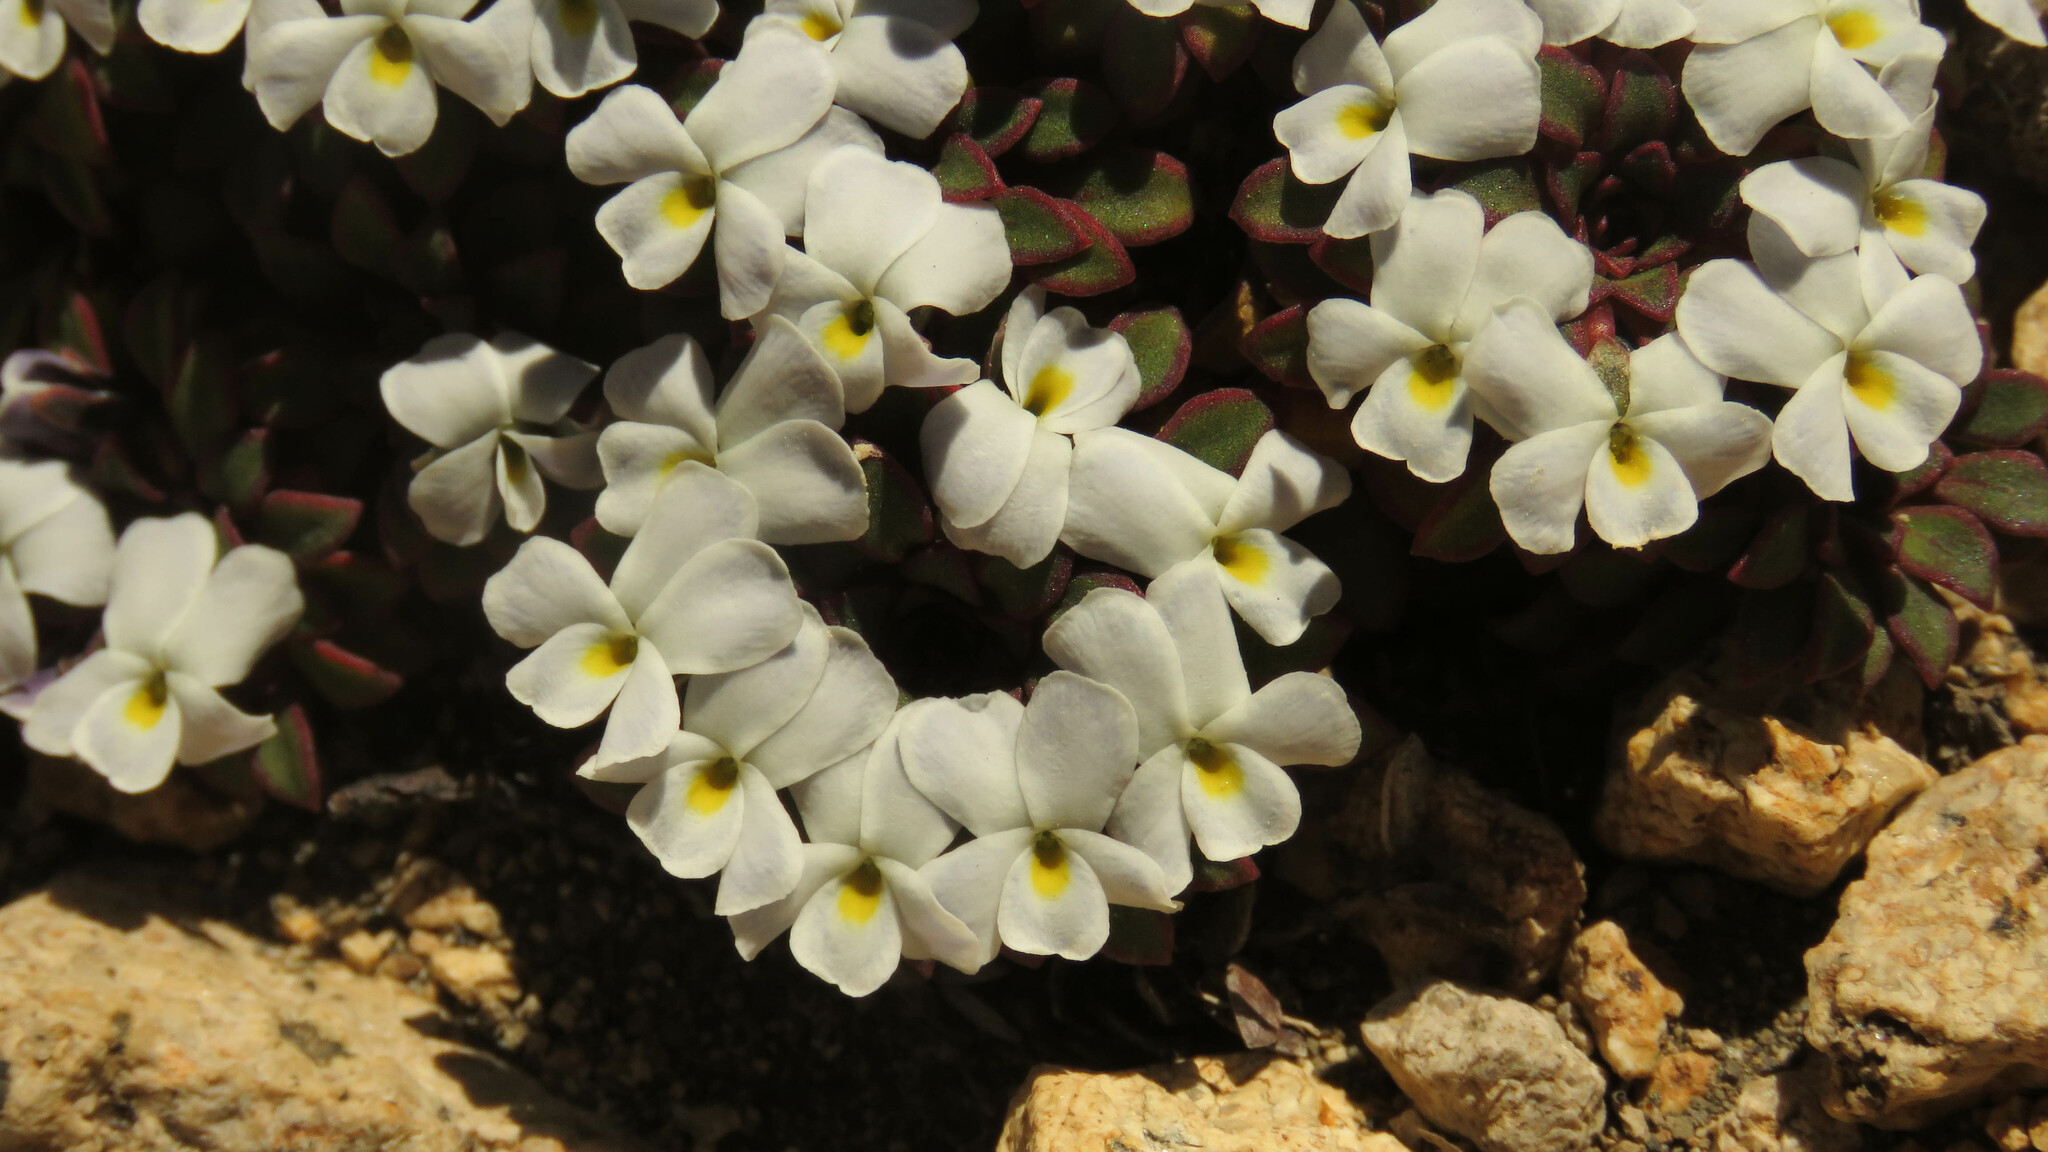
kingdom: Plantae
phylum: Tracheophyta
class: Magnoliopsida
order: Malpighiales
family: Violaceae
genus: Viola
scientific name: Viola sacculus
